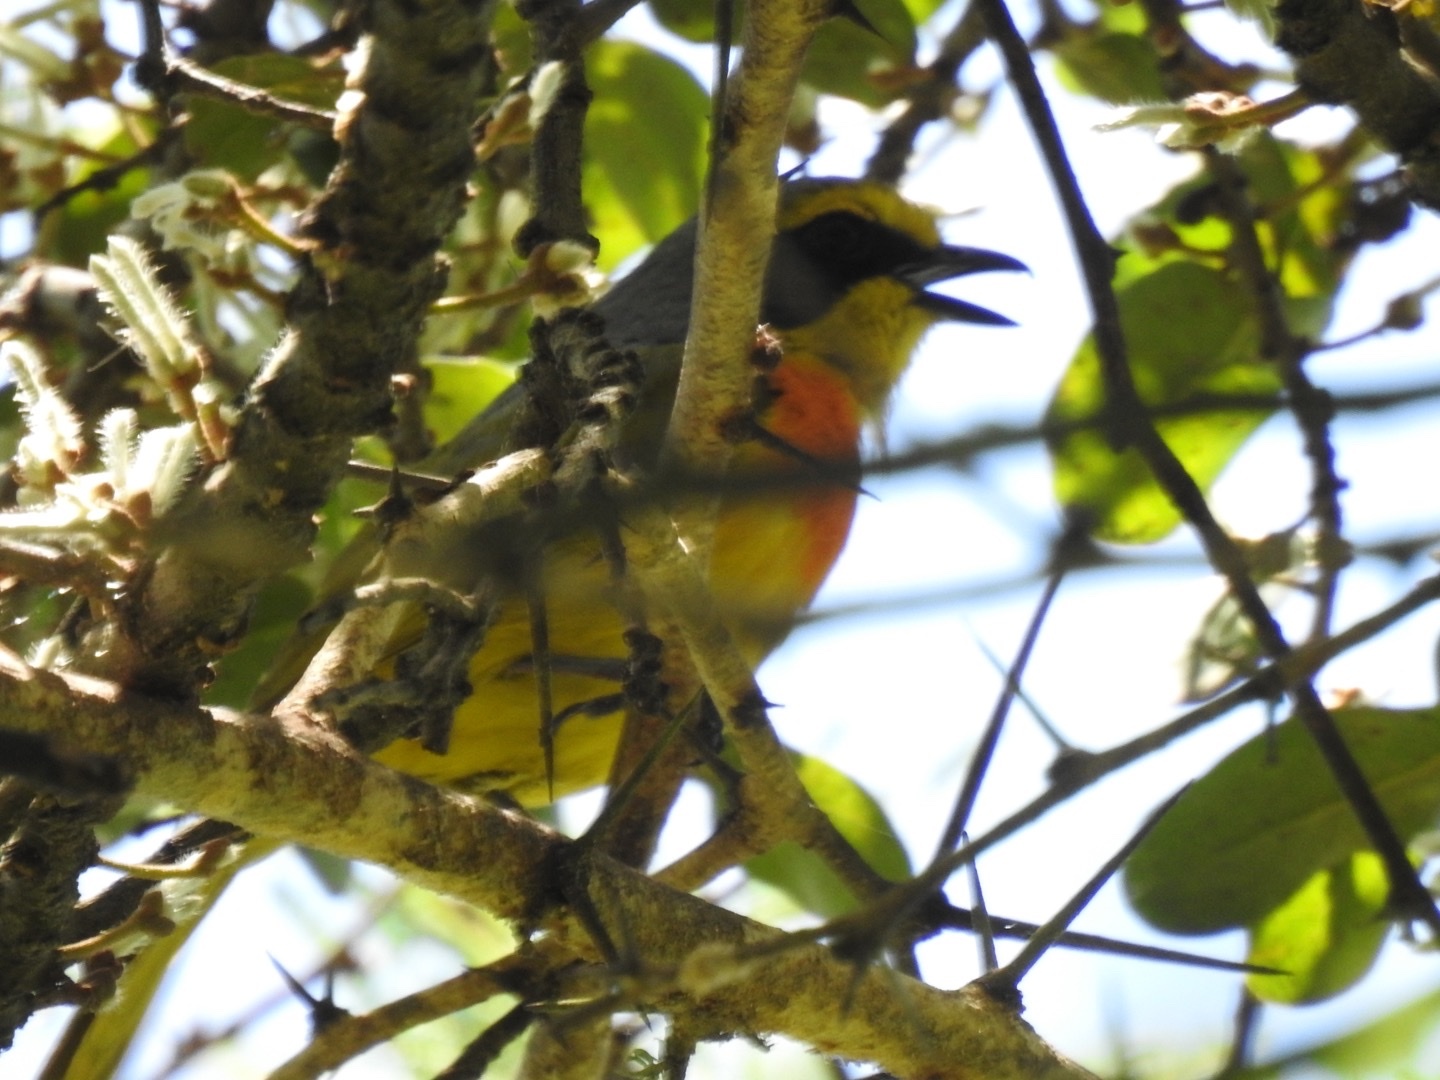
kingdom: Animalia
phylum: Chordata
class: Aves
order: Passeriformes
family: Malaconotidae
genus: Chlorophoneus
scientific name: Chlorophoneus sulfureopectus
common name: Orange-breasted bushshrike
